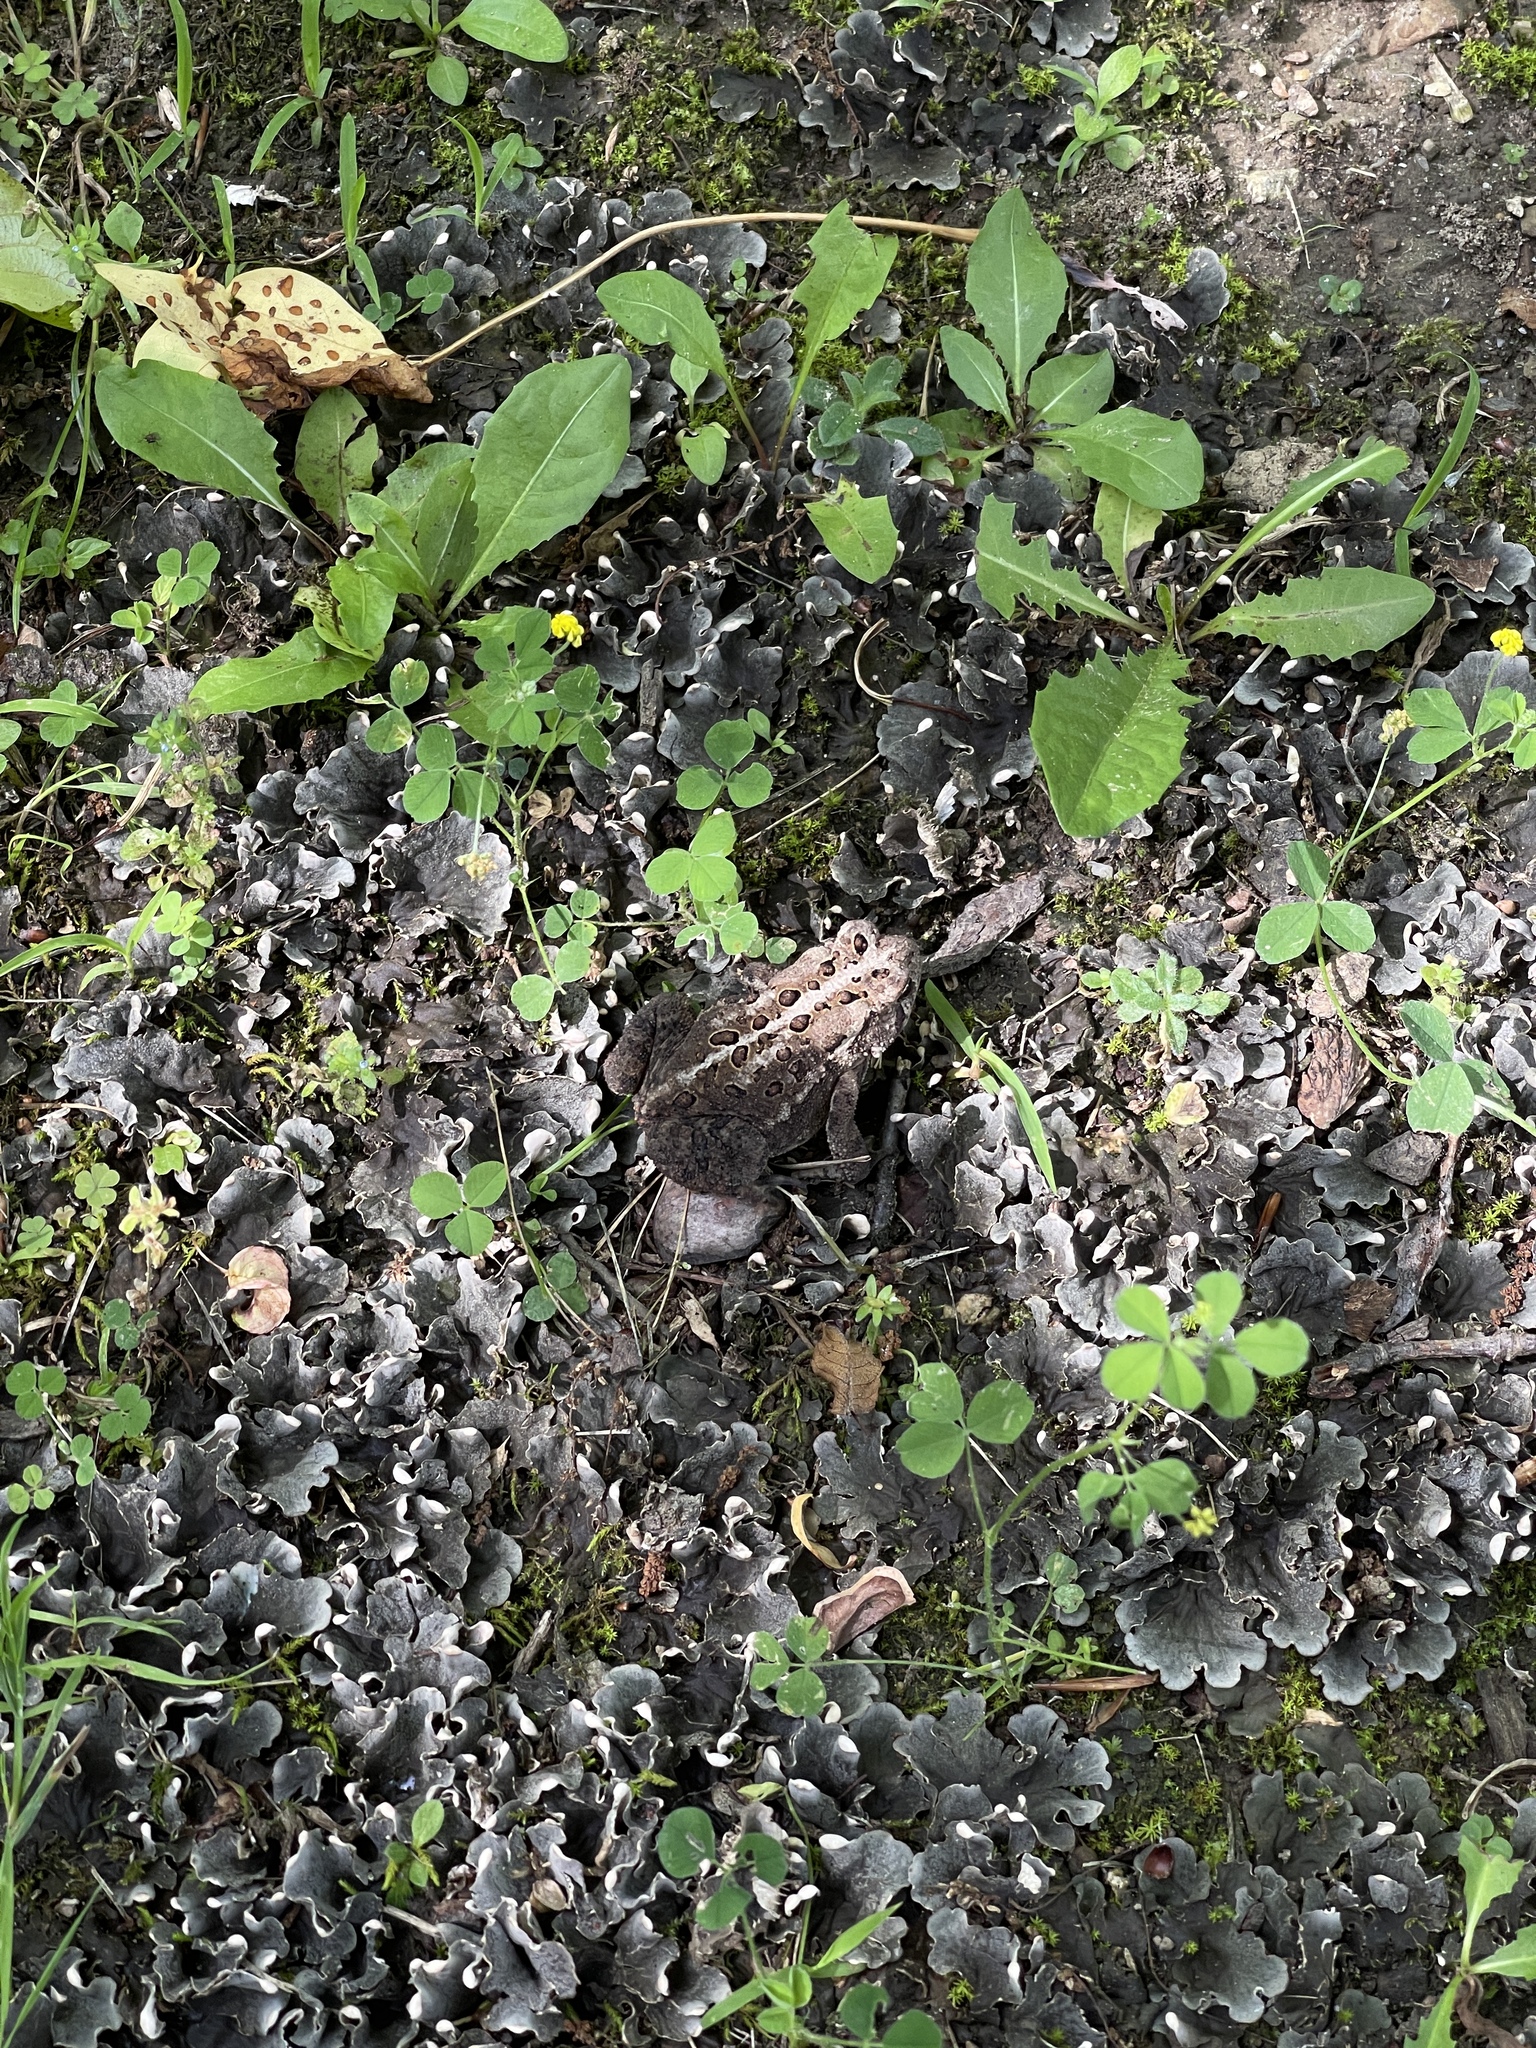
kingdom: Fungi
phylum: Ascomycota
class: Lecanoromycetes
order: Peltigerales
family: Peltigeraceae
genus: Peltigera
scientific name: Peltigera praetextata
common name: Scaly dog-lichen
